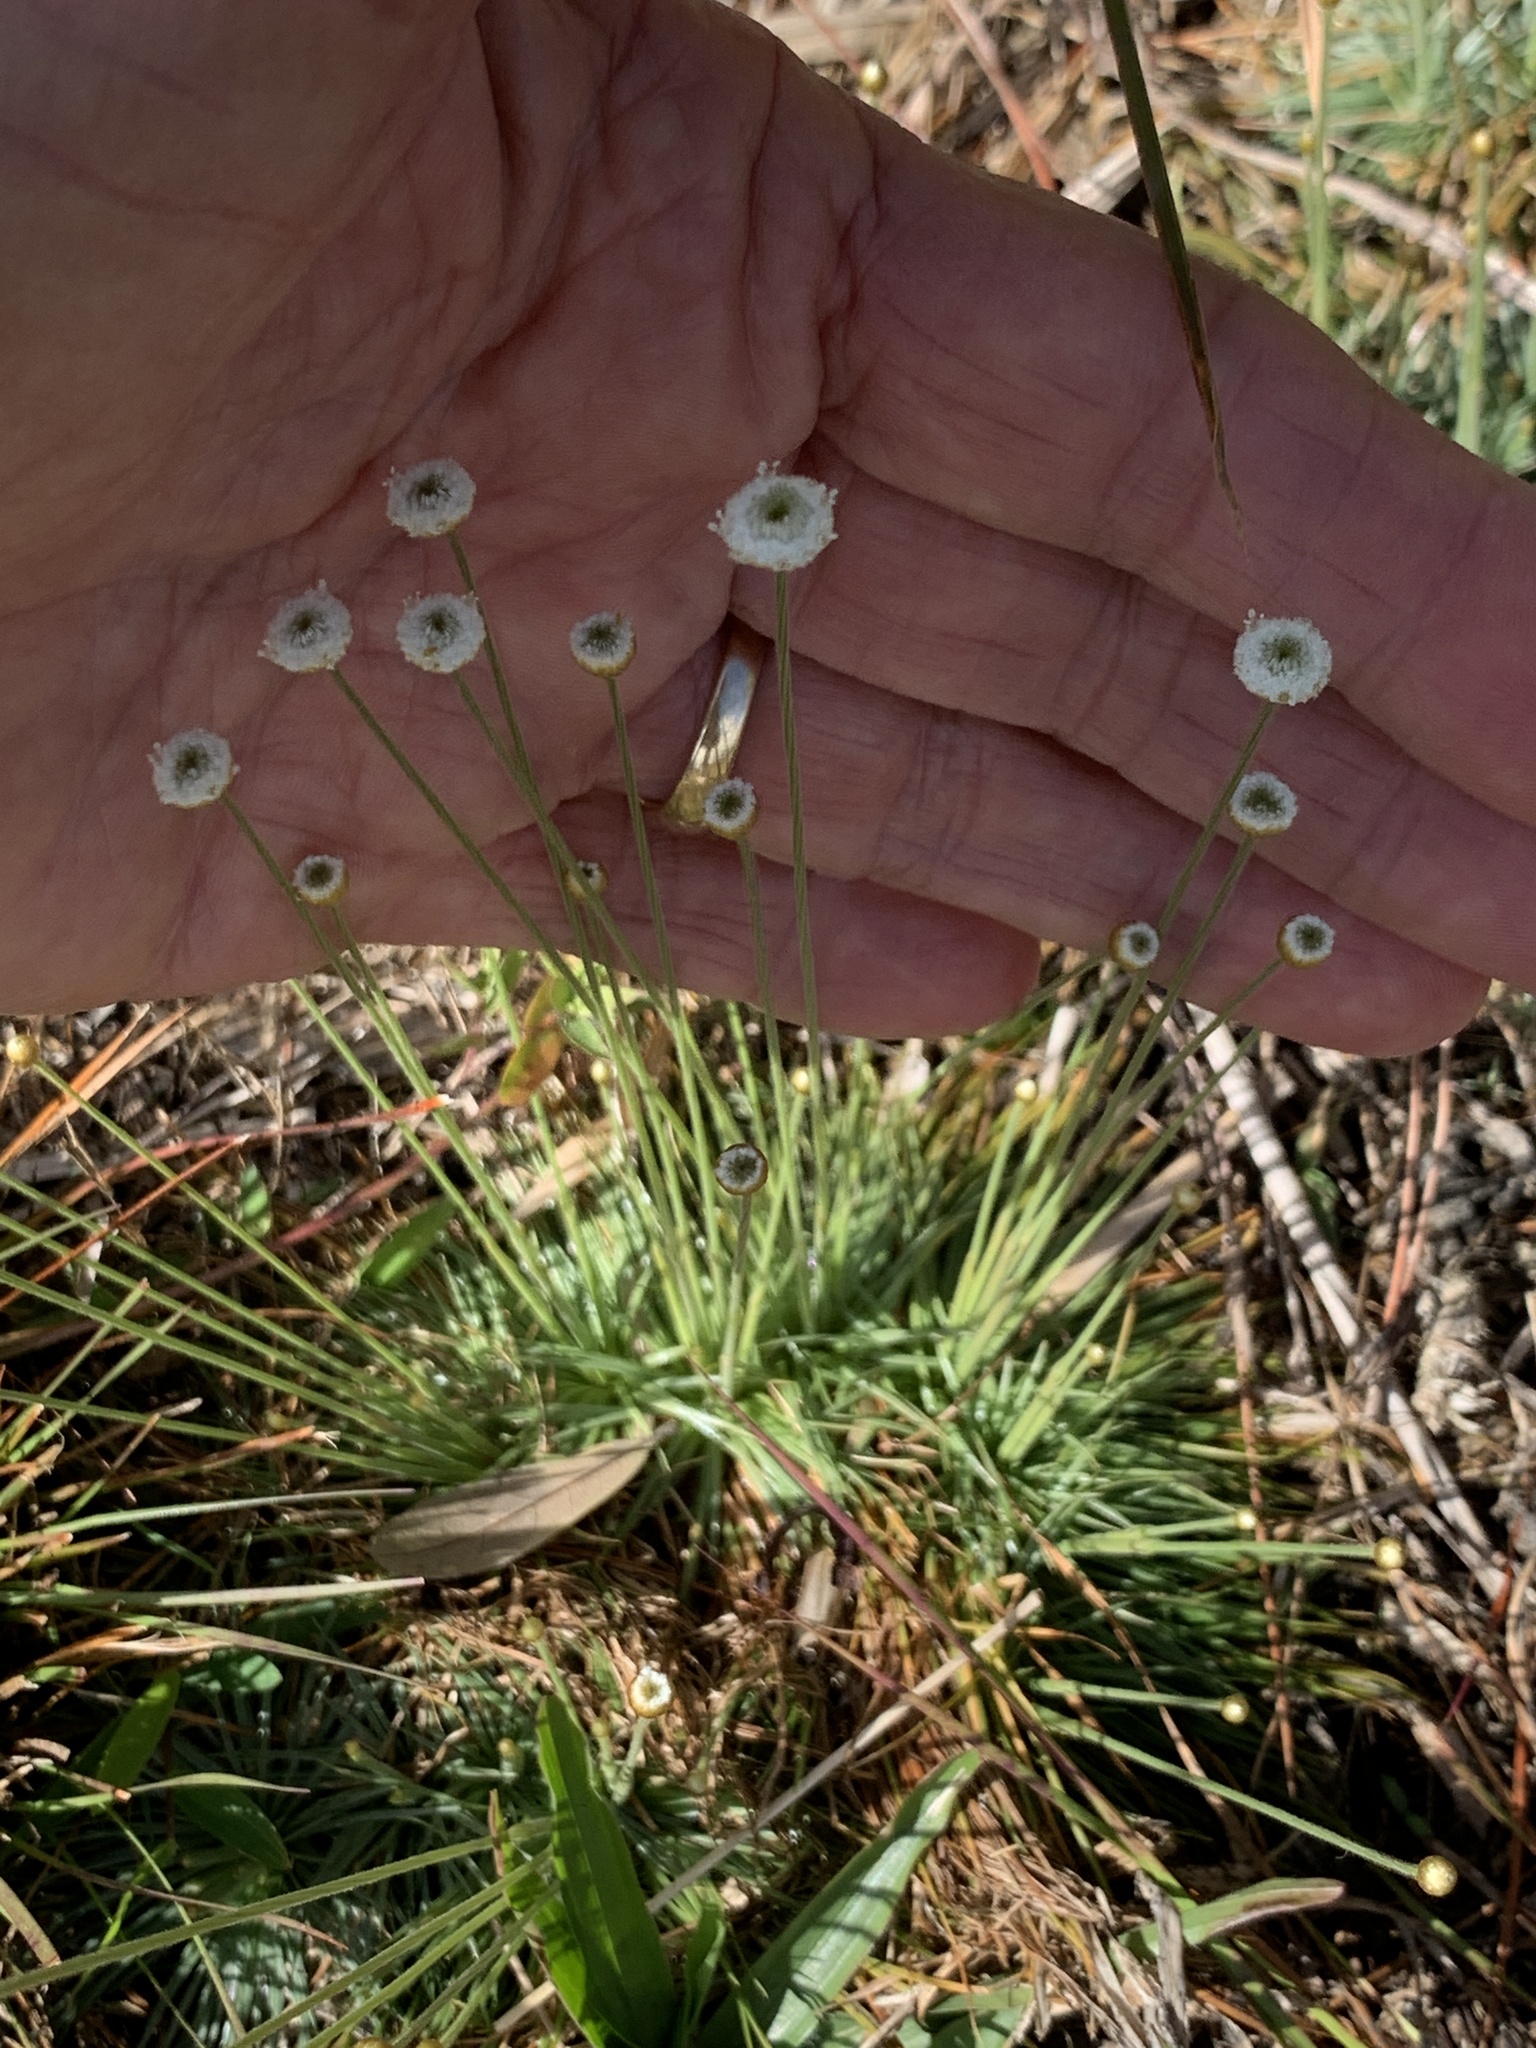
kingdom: Plantae
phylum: Tracheophyta
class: Liliopsida
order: Poales
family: Eriocaulaceae
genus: Syngonanthus
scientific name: Syngonanthus flavidulus
